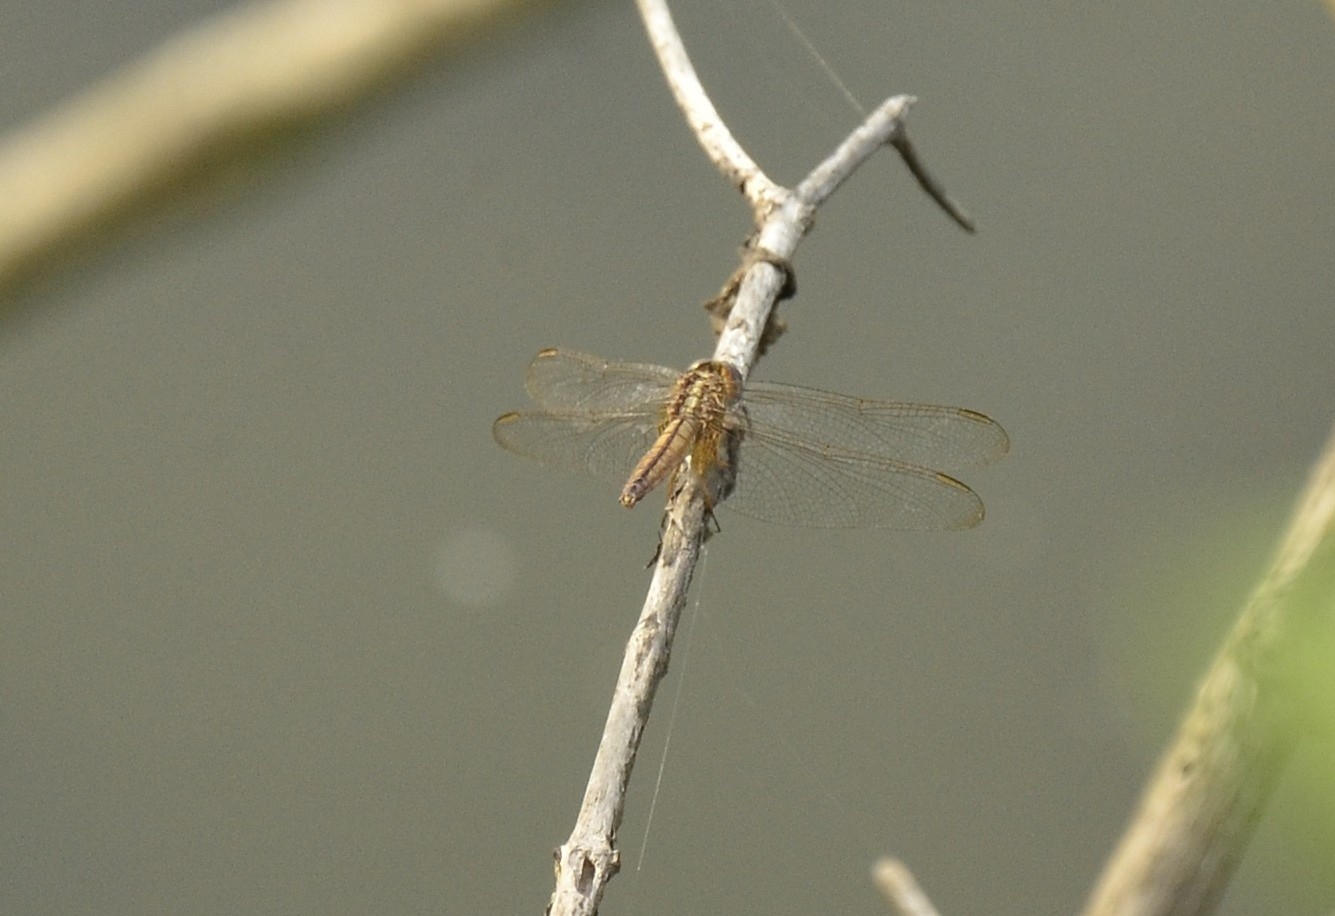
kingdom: Animalia
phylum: Arthropoda
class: Insecta
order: Odonata
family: Libellulidae
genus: Crocothemis
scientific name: Crocothemis servilia
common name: Scarlet skimmer
